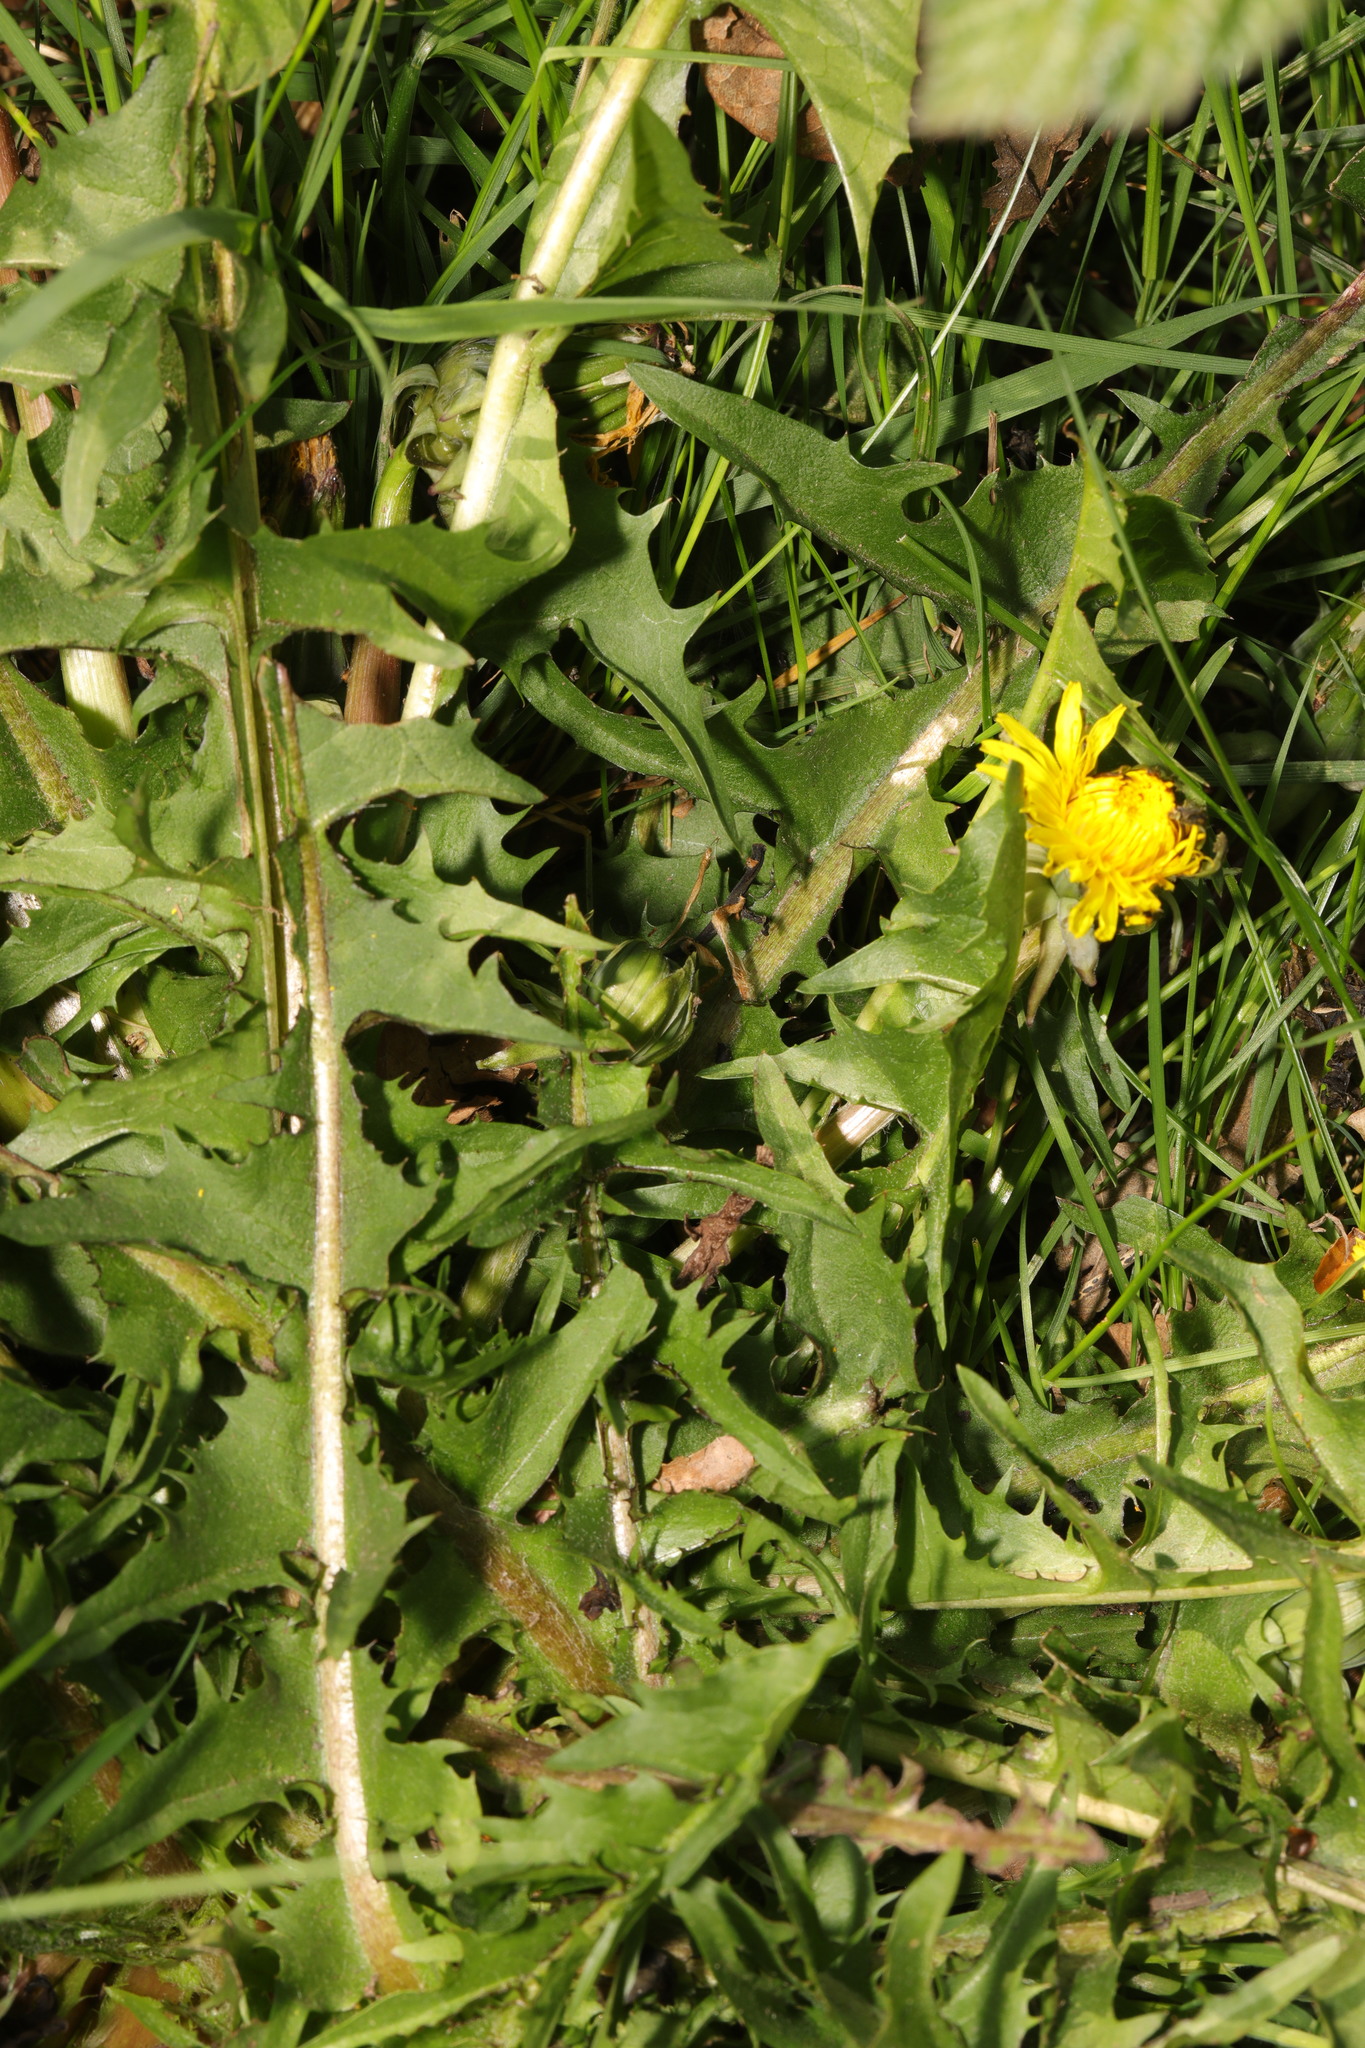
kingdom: Plantae
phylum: Tracheophyta
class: Magnoliopsida
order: Asterales
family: Asteraceae
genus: Taraxacum
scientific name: Taraxacum officinale
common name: Common dandelion
